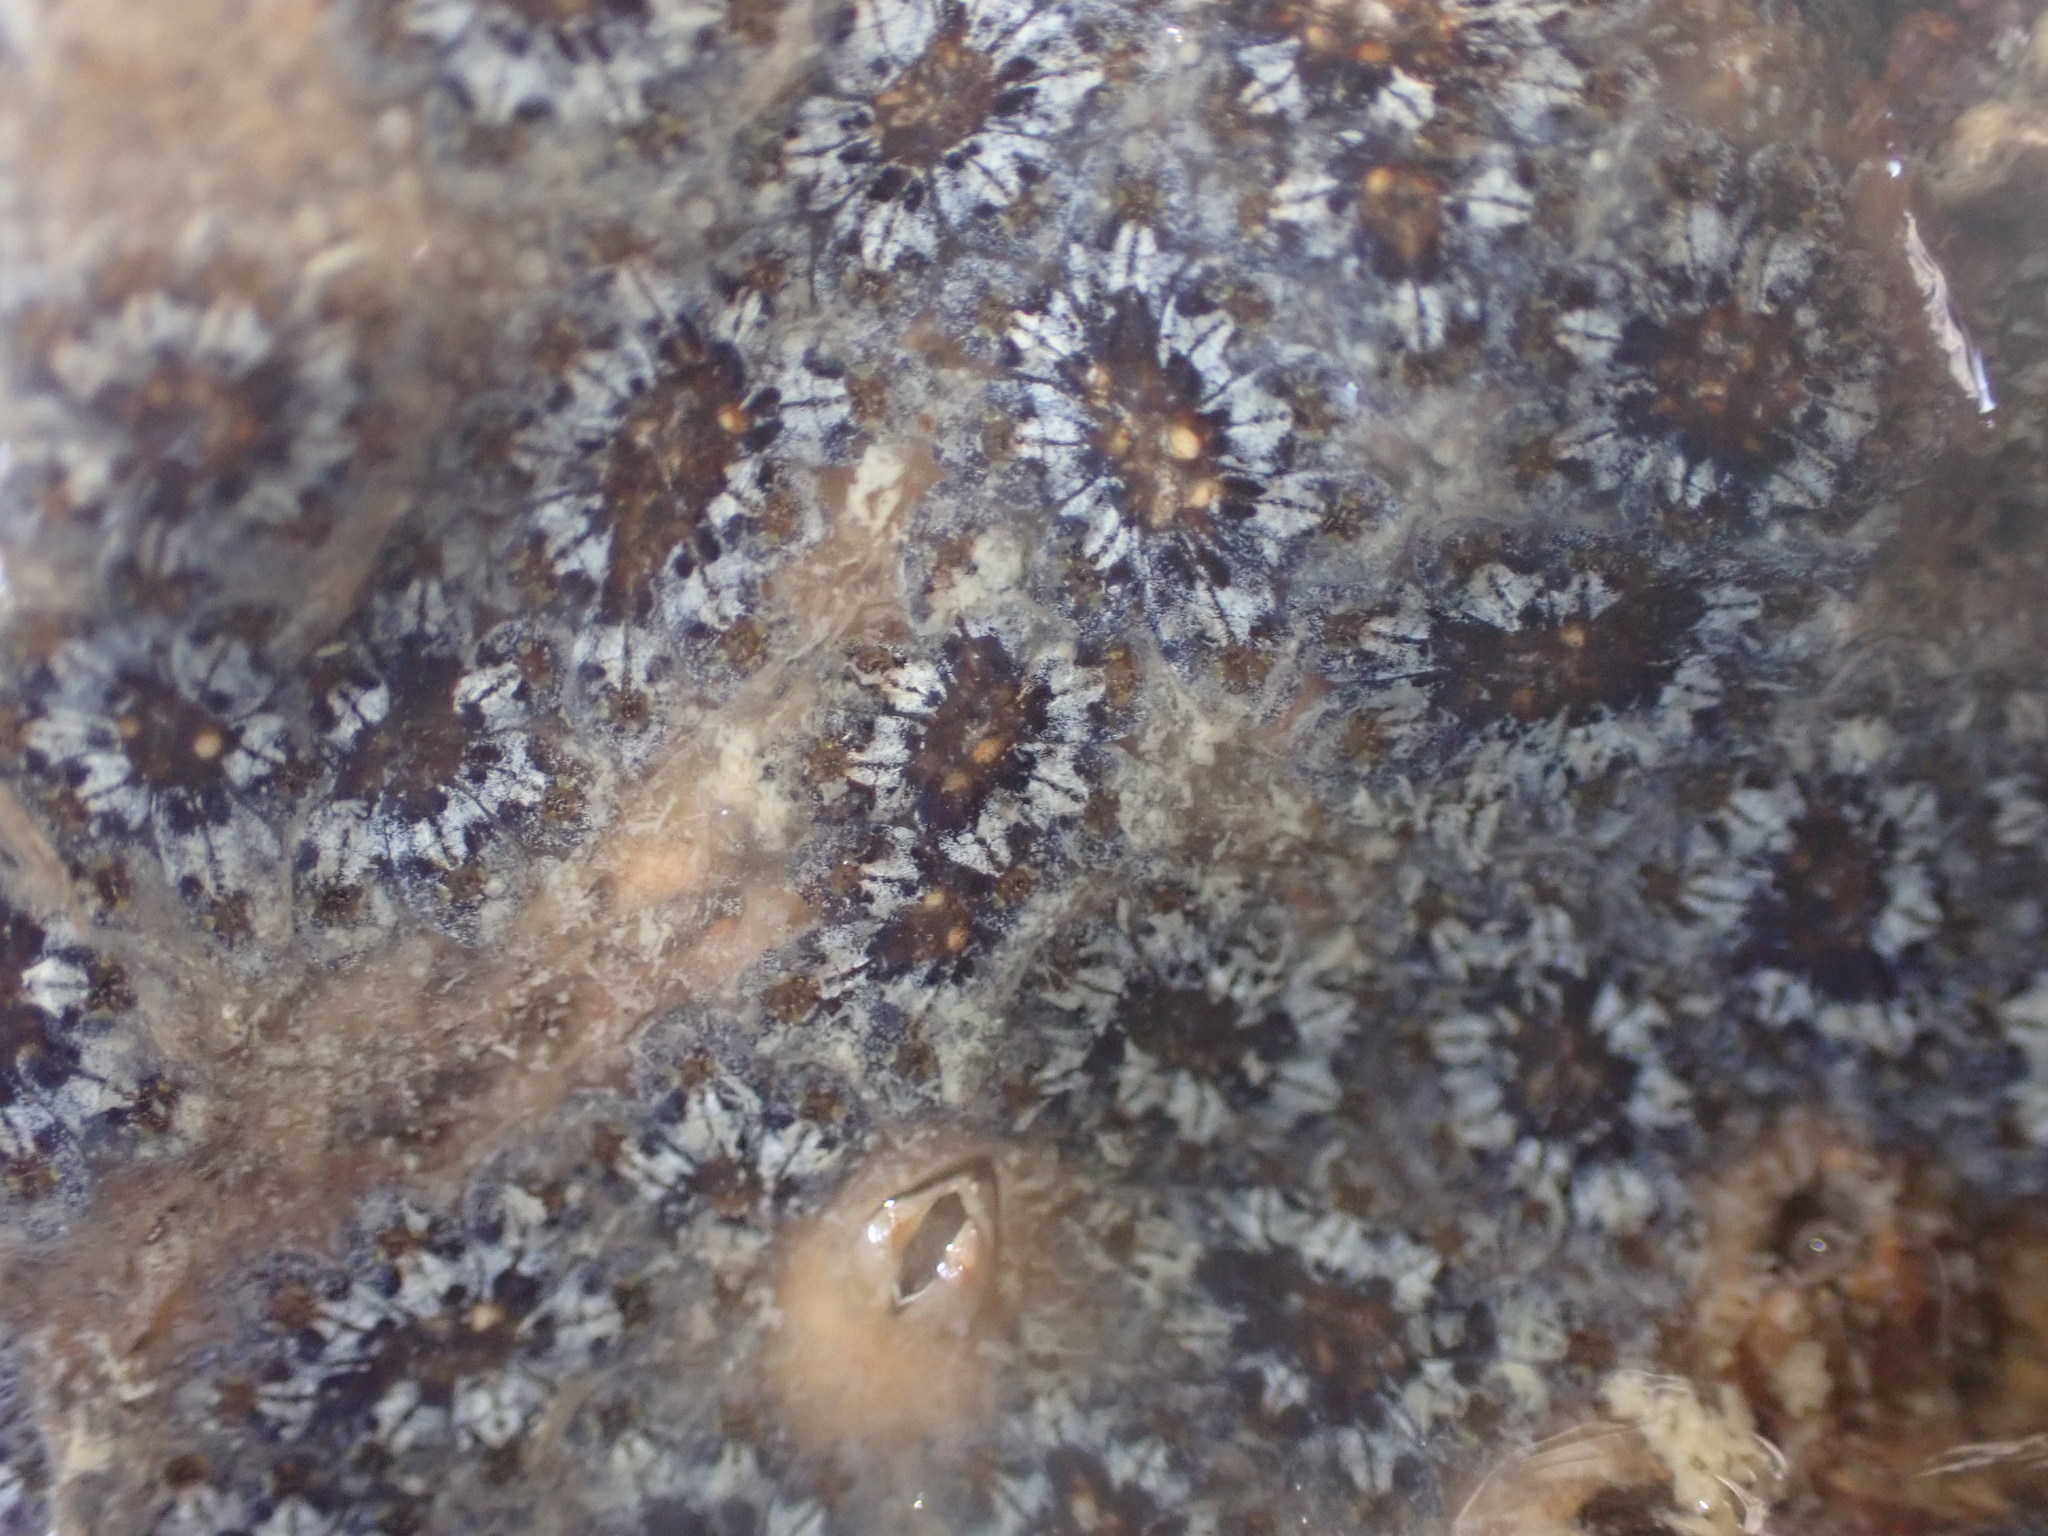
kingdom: Animalia
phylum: Chordata
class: Ascidiacea
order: Stolidobranchia
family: Styelidae
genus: Botryllus
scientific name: Botryllus schlosseri
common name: Golden star tunicate
